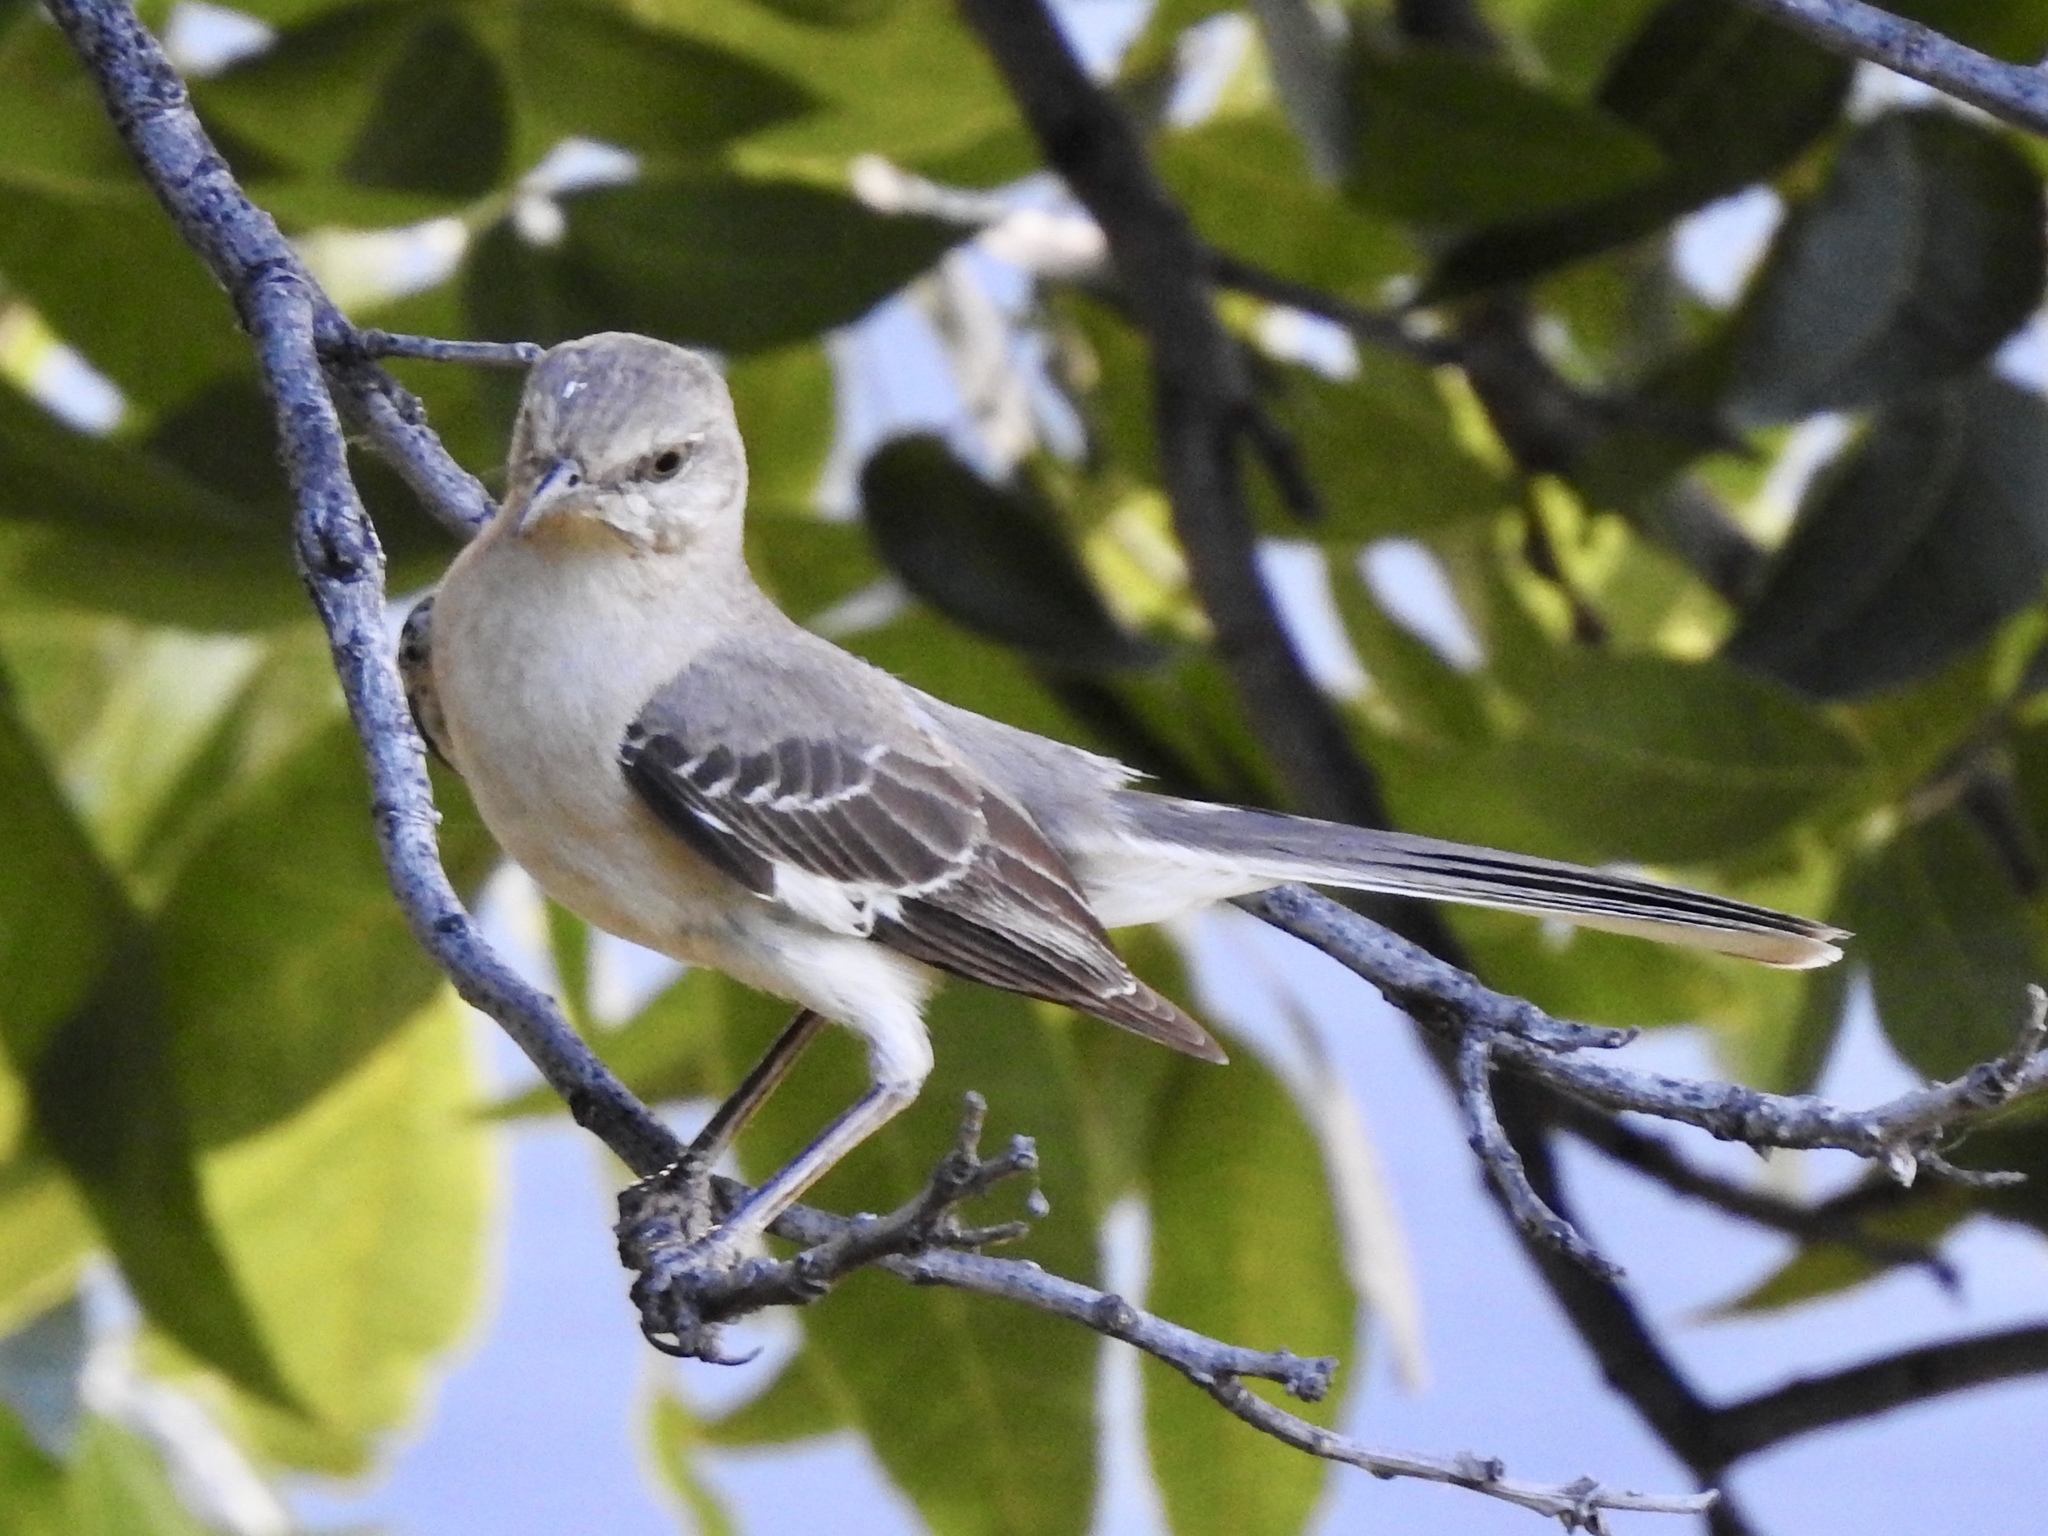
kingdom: Animalia
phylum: Chordata
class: Aves
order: Passeriformes
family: Mimidae
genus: Mimus
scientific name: Mimus polyglottos
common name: Northern mockingbird
